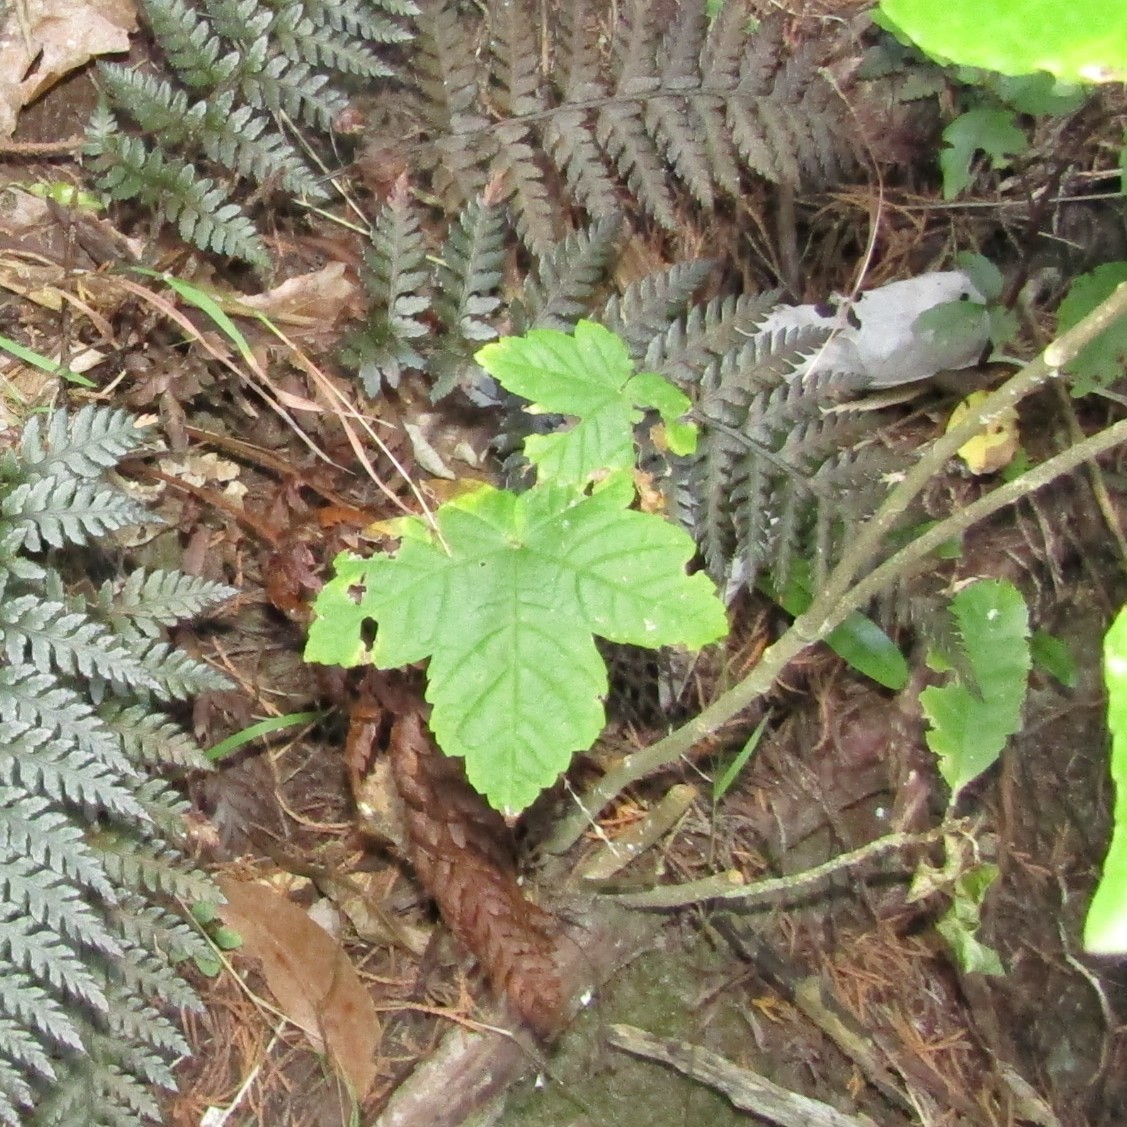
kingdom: Plantae
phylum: Tracheophyta
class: Magnoliopsida
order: Sapindales
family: Sapindaceae
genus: Acer
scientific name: Acer pseudoplatanus
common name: Sycamore
